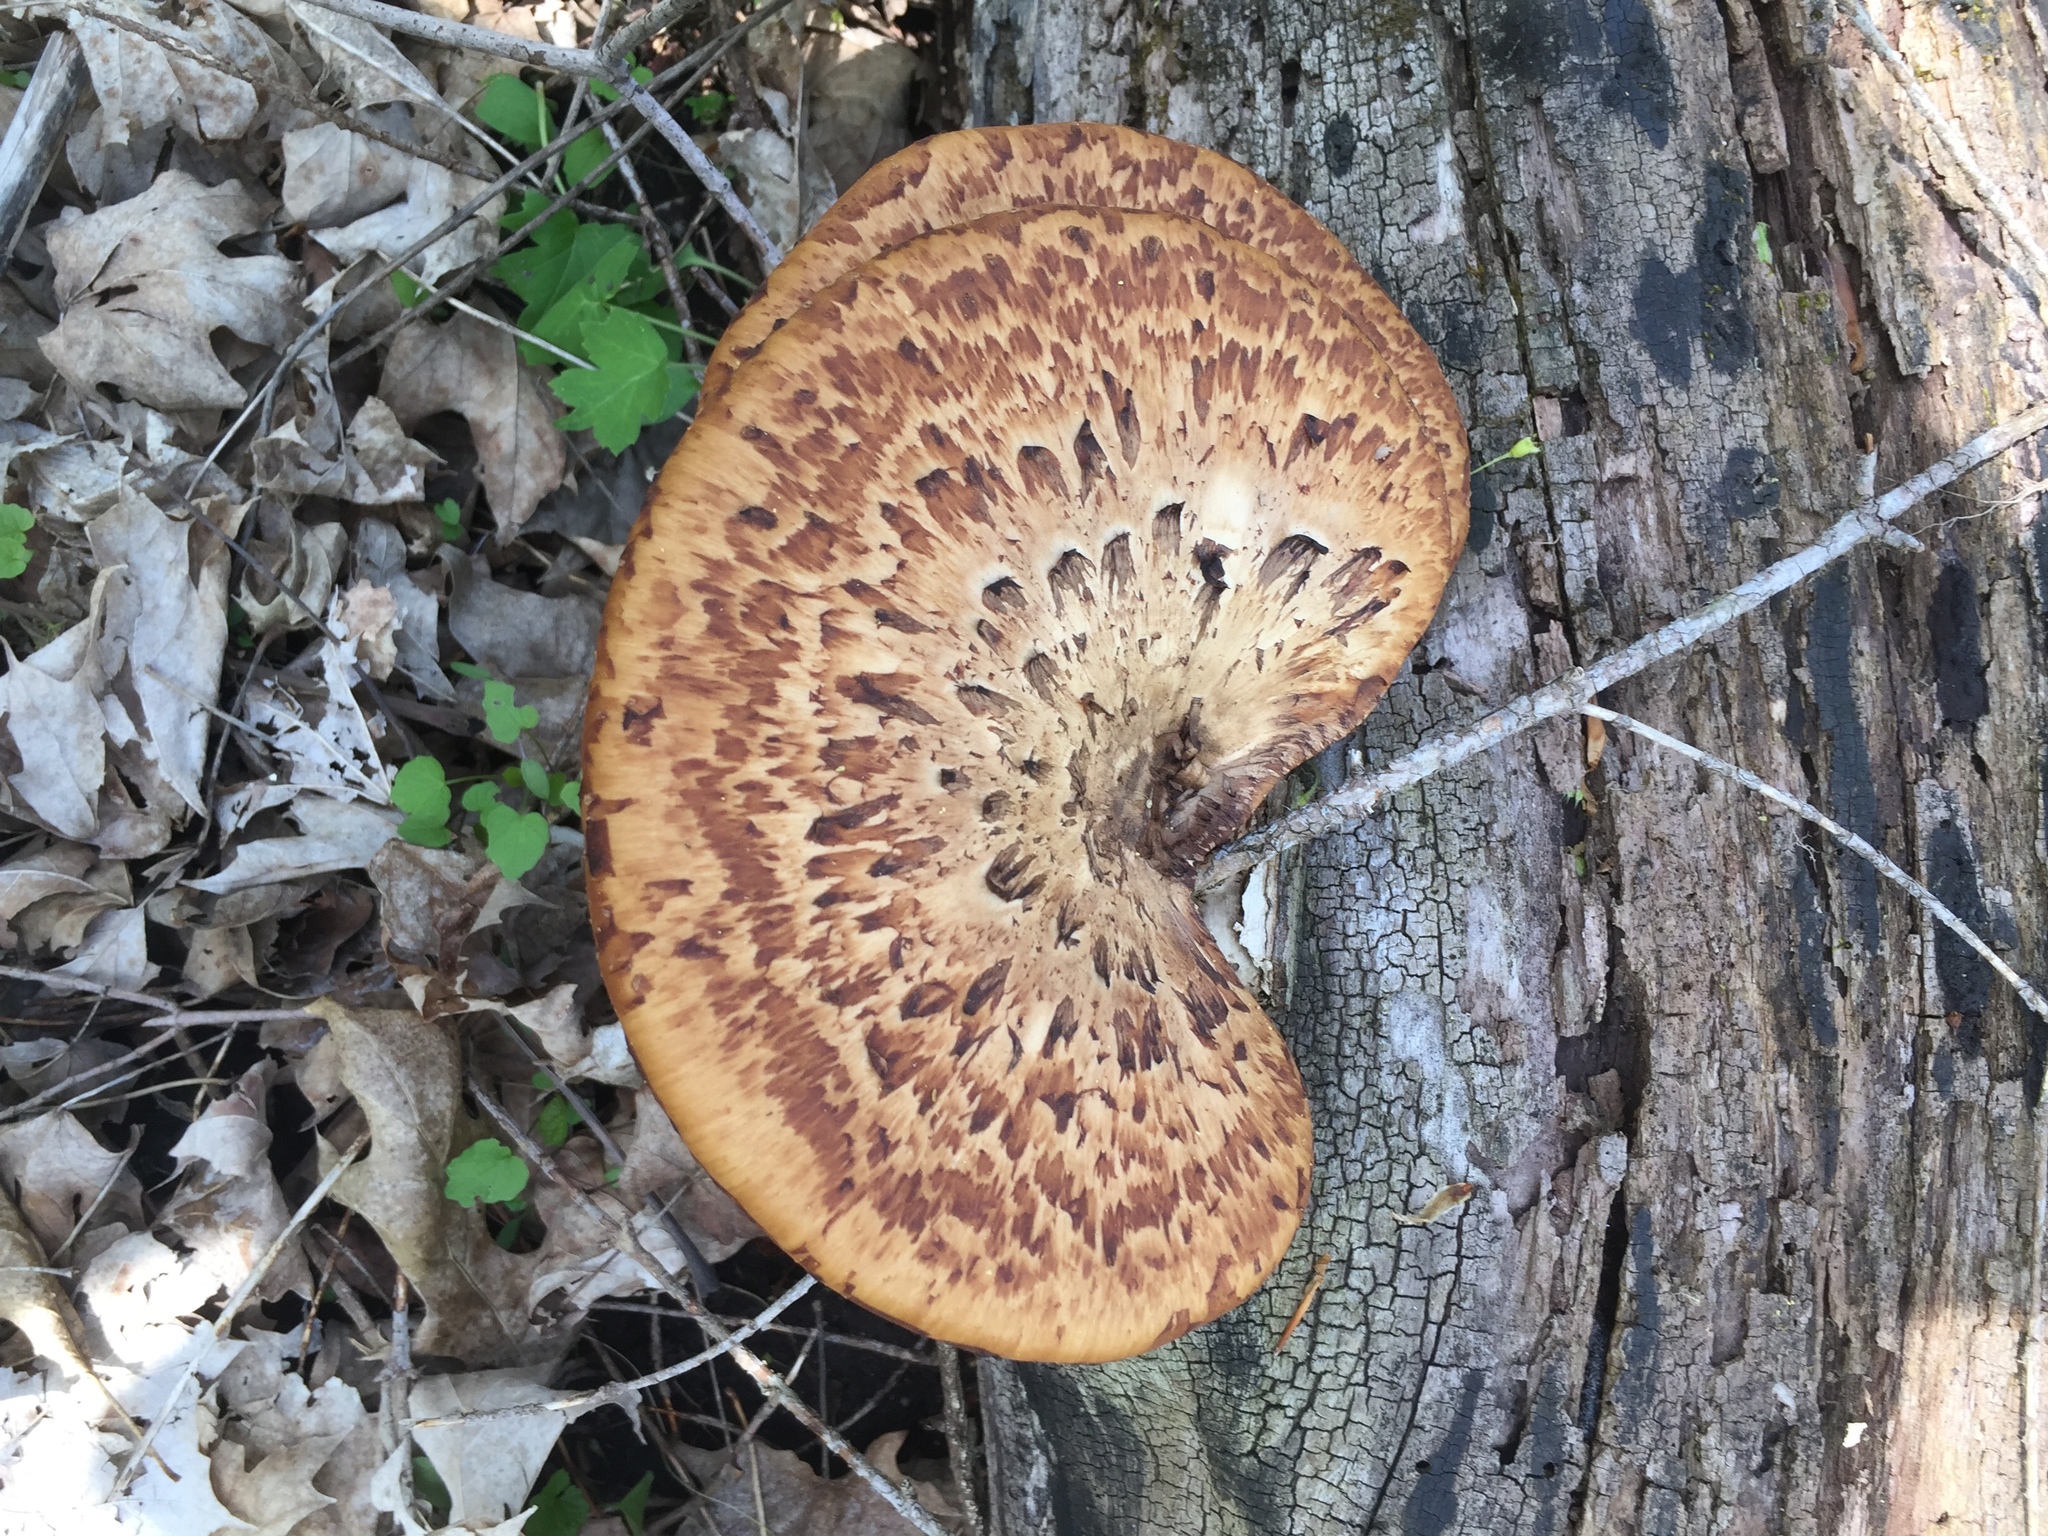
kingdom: Fungi
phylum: Basidiomycota
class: Agaricomycetes
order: Polyporales
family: Polyporaceae
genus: Cerioporus
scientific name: Cerioporus squamosus
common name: Dryad's saddle
